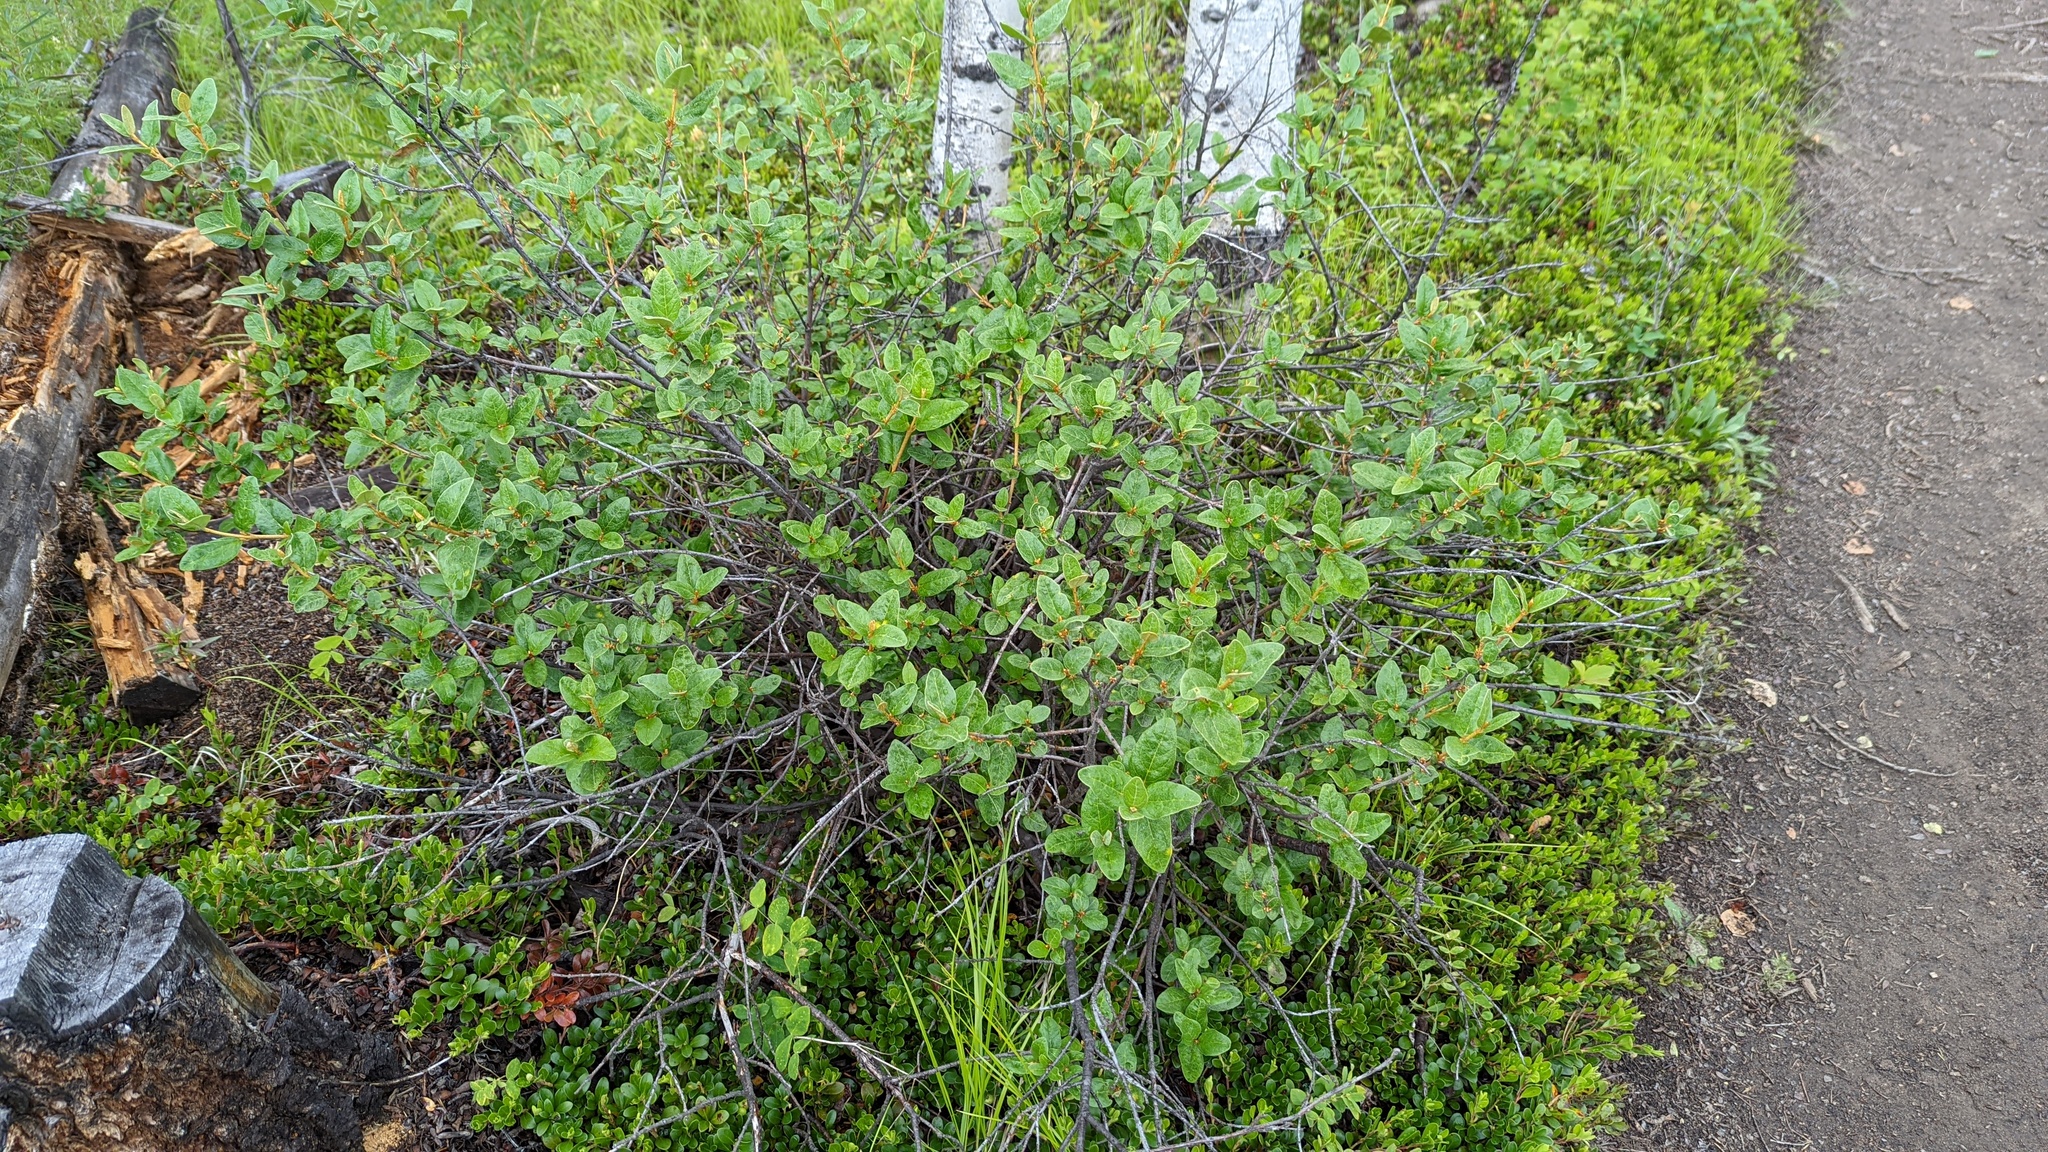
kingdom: Plantae
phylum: Tracheophyta
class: Magnoliopsida
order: Rosales
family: Elaeagnaceae
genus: Shepherdia
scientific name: Shepherdia canadensis
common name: Soapberry
